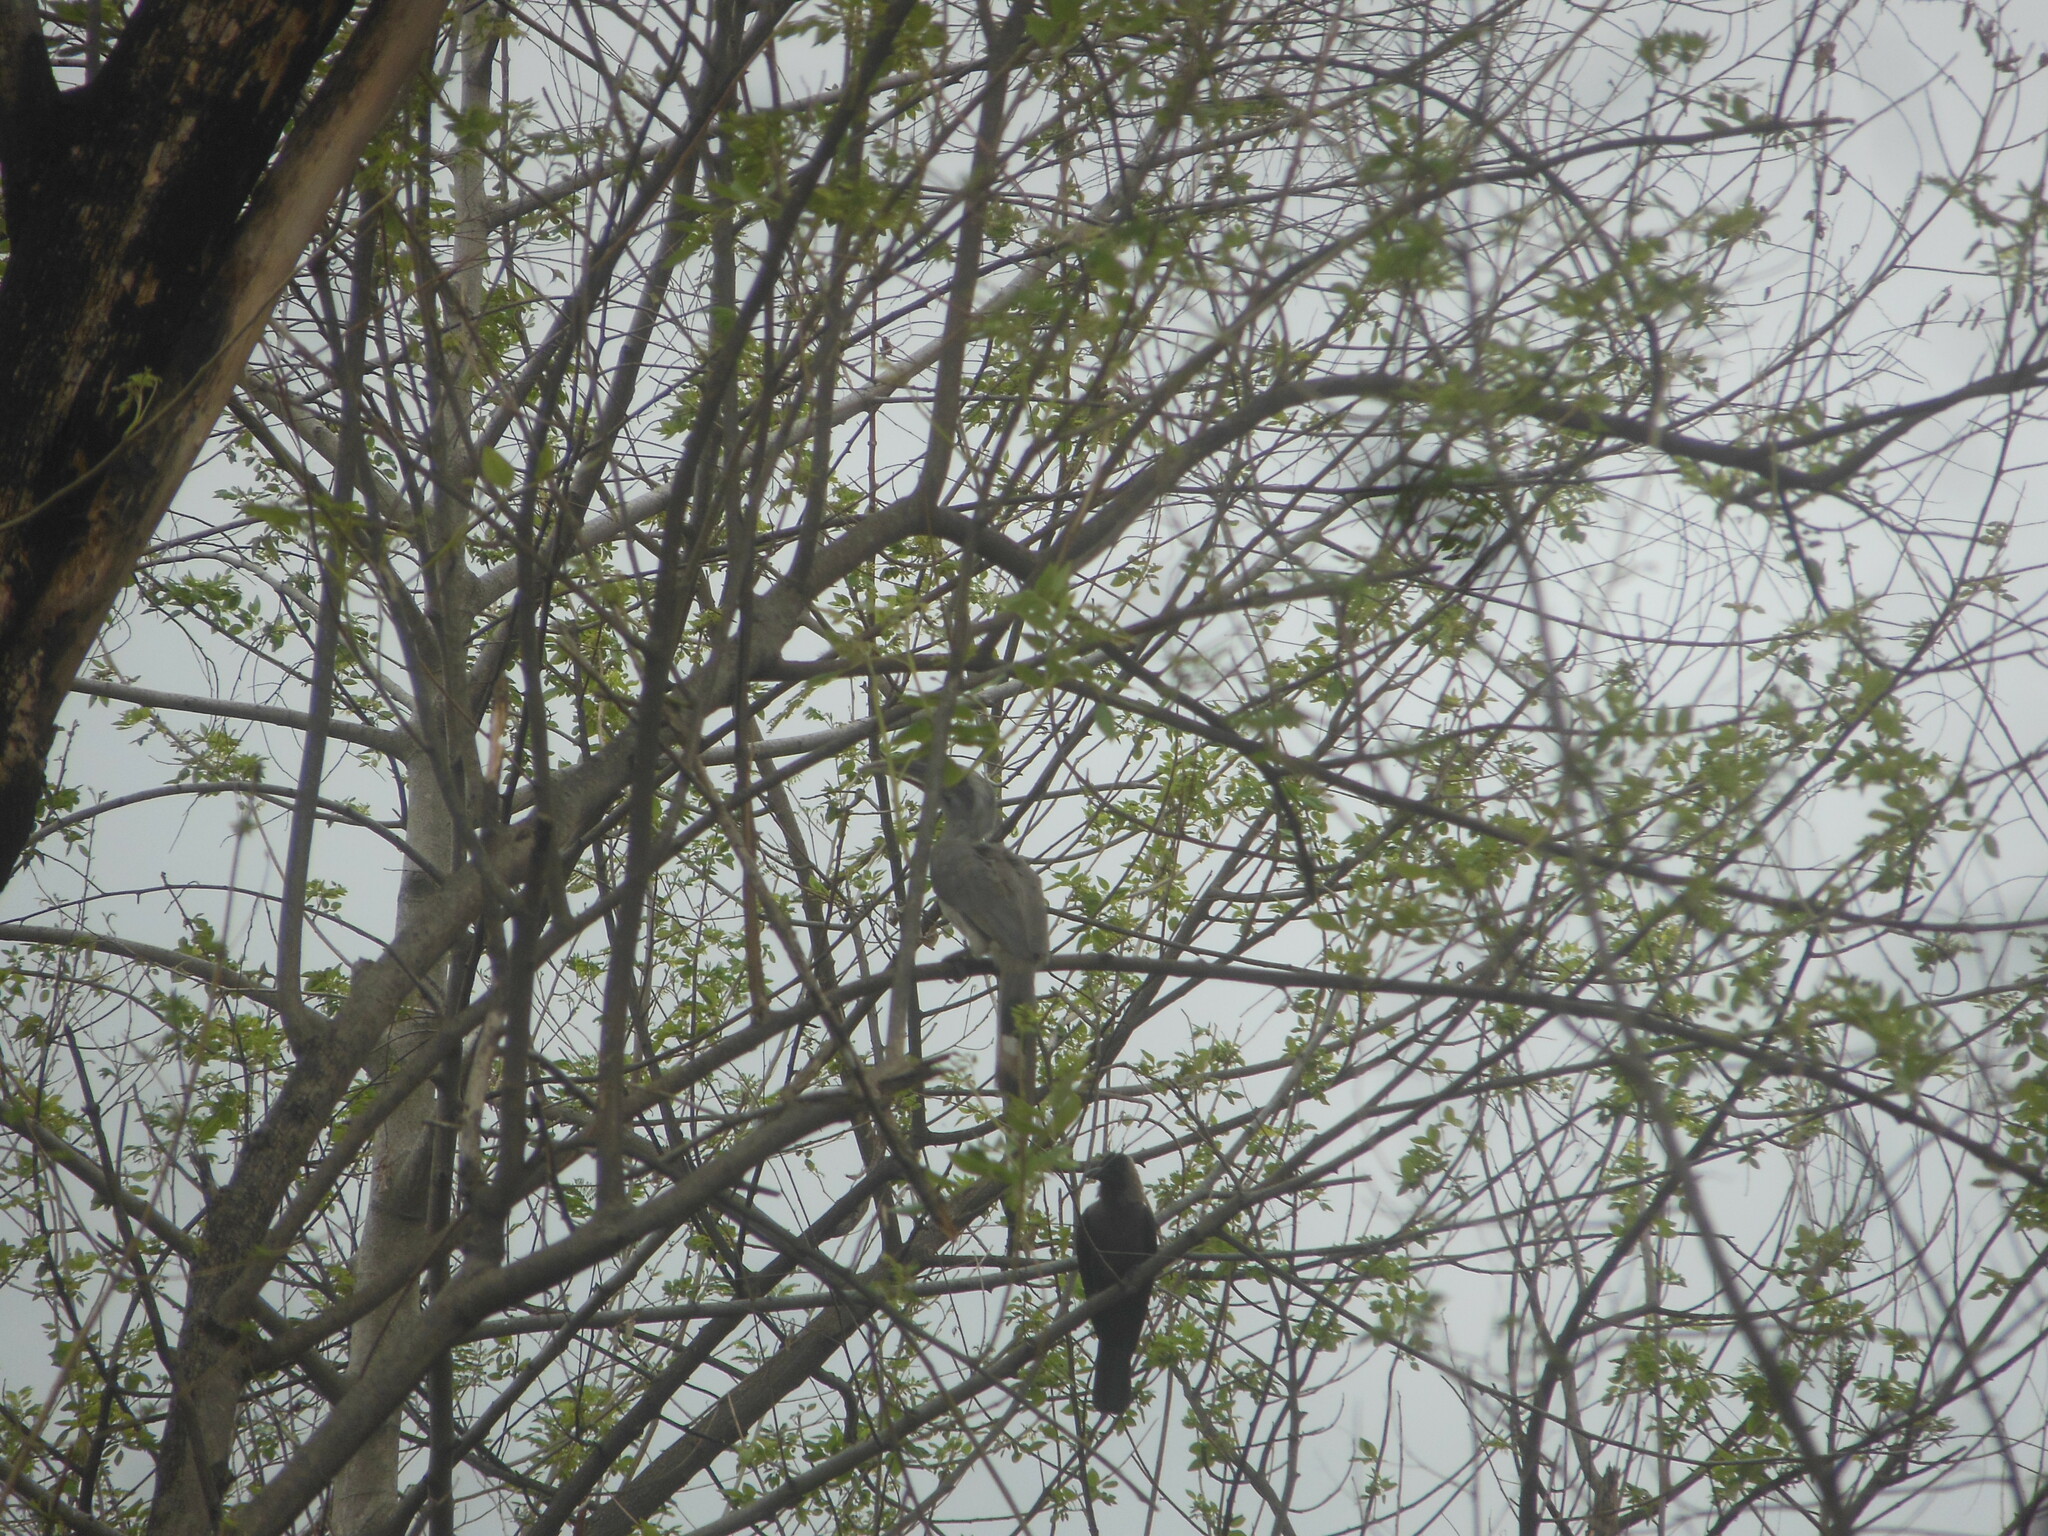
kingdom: Animalia
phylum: Chordata
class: Aves
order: Bucerotiformes
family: Bucerotidae
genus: Ocyceros
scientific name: Ocyceros birostris
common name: Indian grey hornbill
